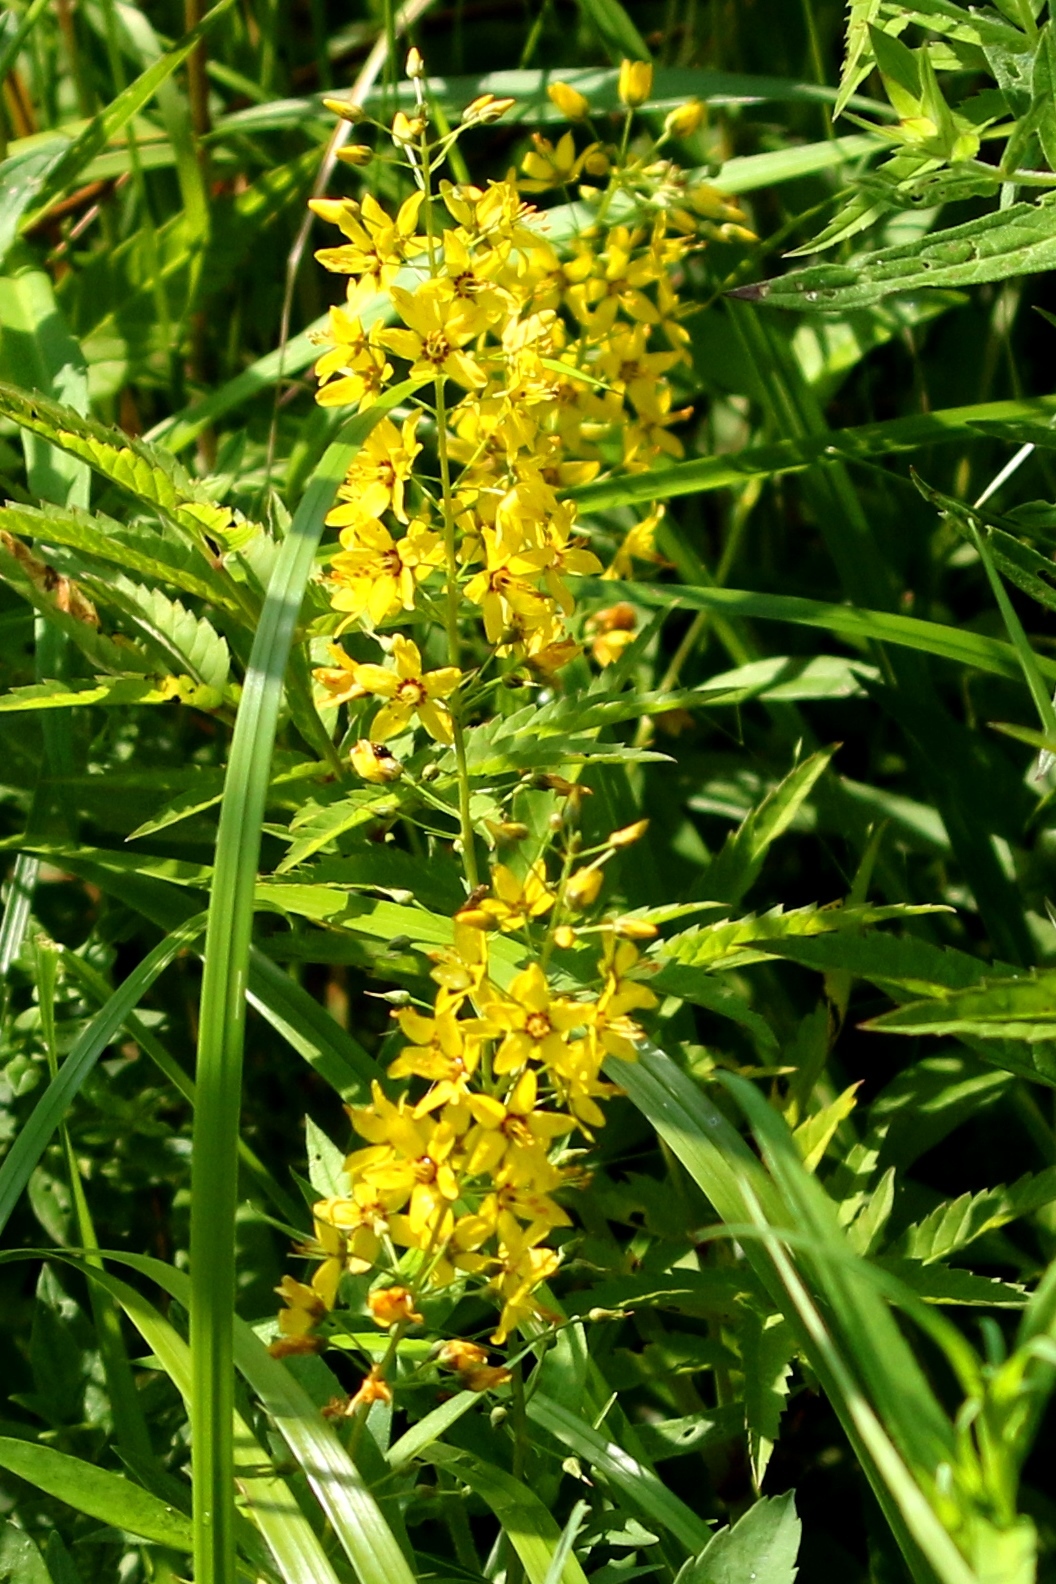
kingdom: Plantae
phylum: Tracheophyta
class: Magnoliopsida
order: Ericales
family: Primulaceae
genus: Lysimachia
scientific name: Lysimachia terrestris
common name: Lake loosestrife
